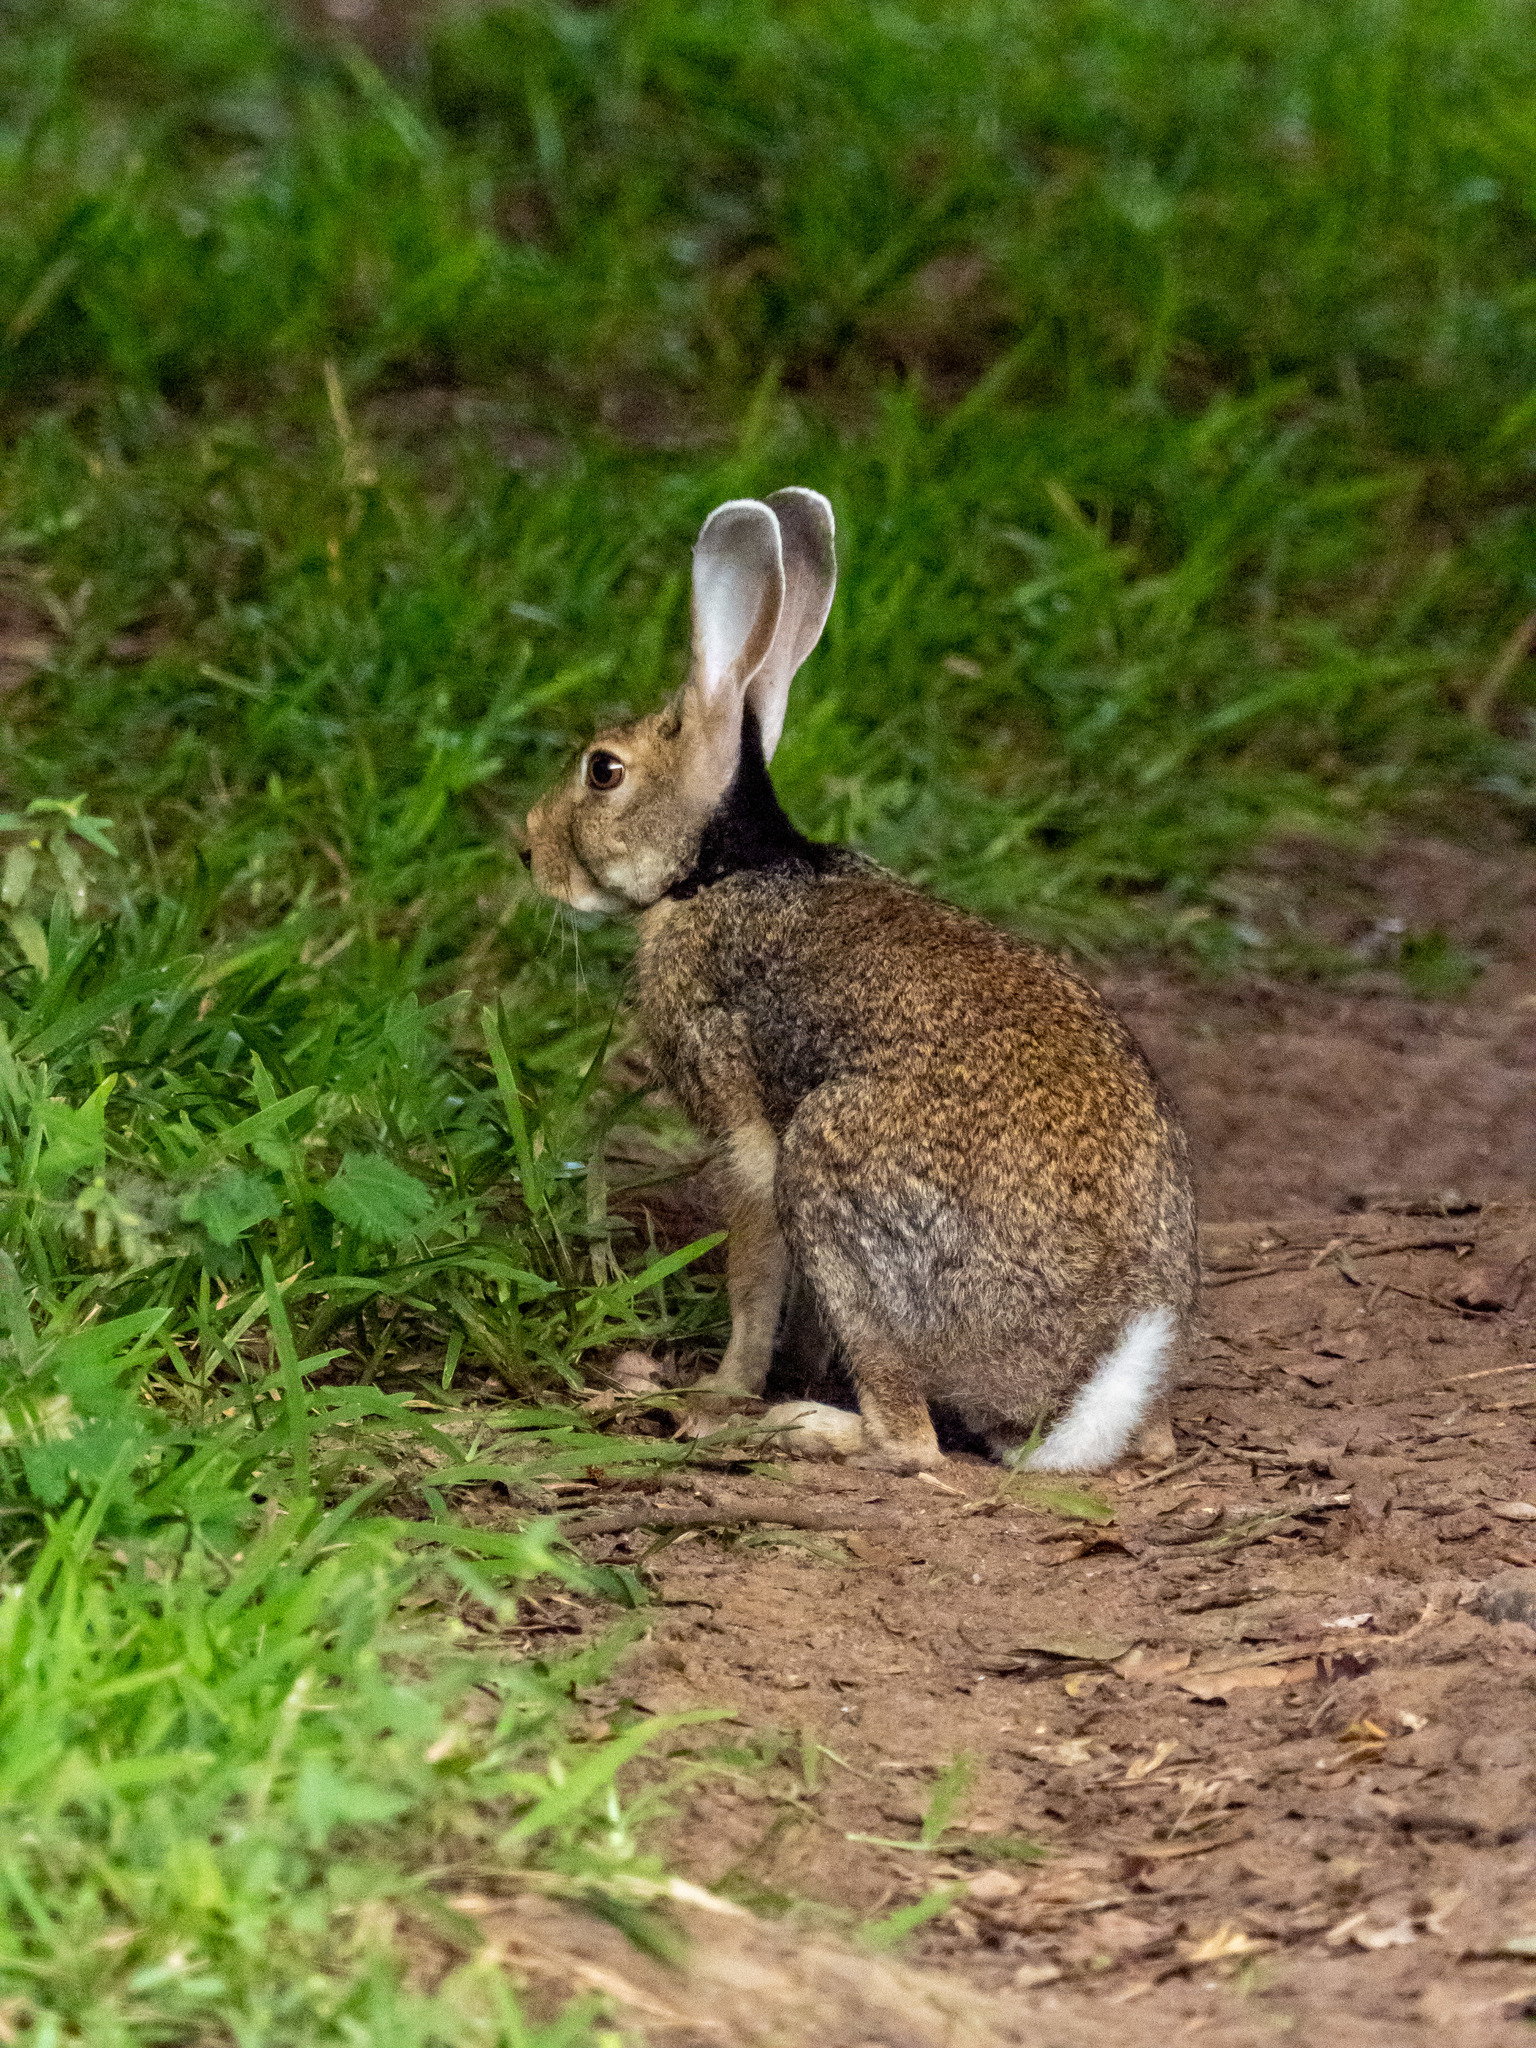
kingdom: Animalia
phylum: Chordata
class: Mammalia
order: Lagomorpha
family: Leporidae
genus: Lepus
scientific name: Lepus nigricollis
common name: Indian hare
